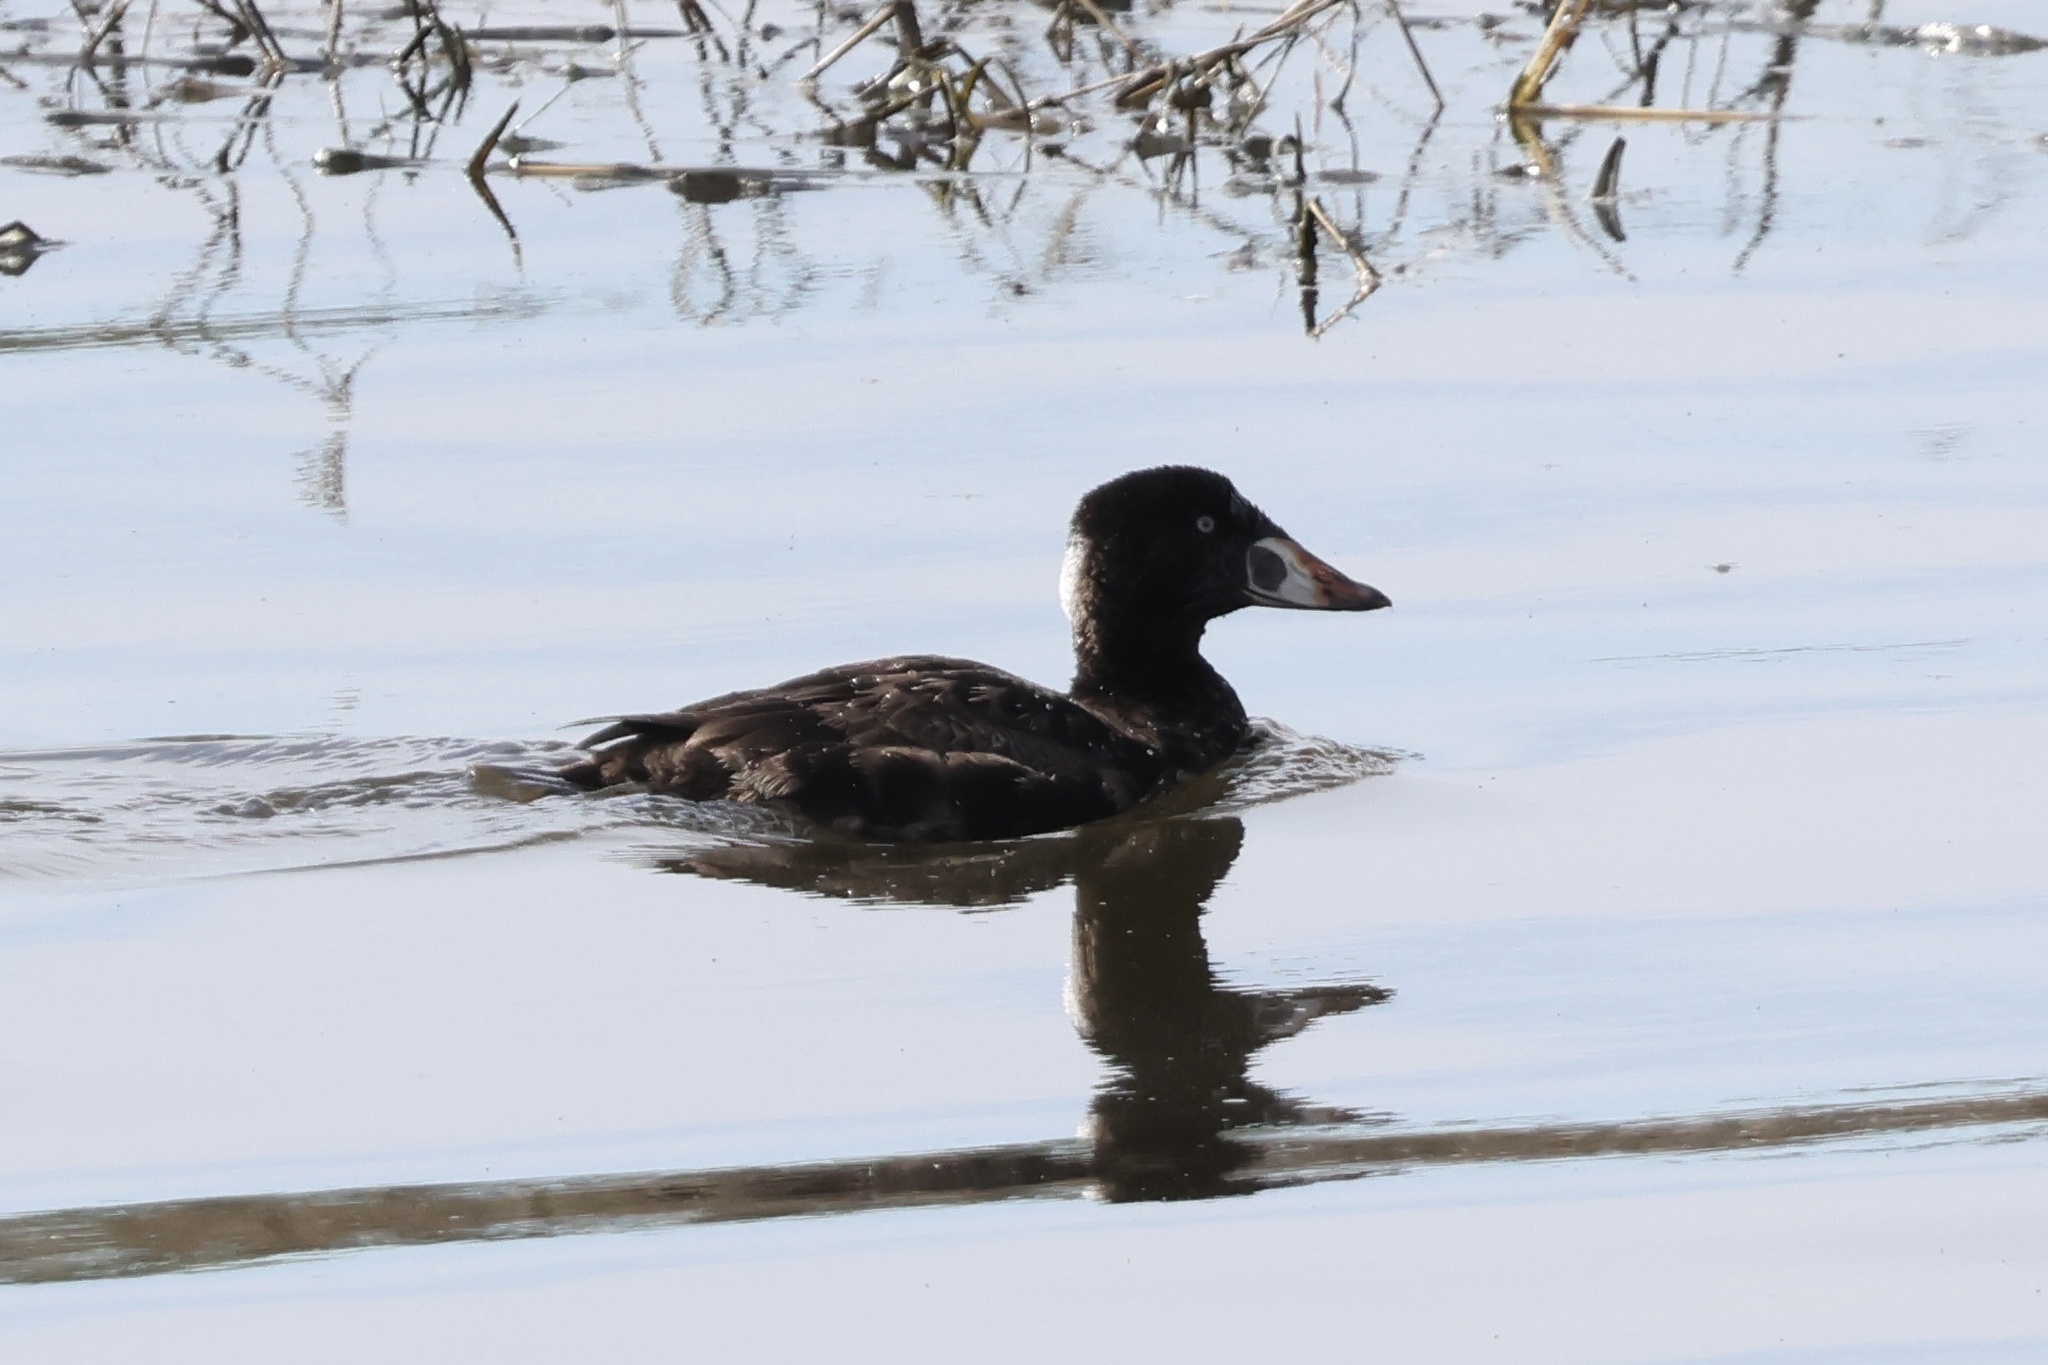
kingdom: Animalia
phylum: Chordata
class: Aves
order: Anseriformes
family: Anatidae
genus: Melanitta
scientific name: Melanitta perspicillata
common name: Surf scoter
